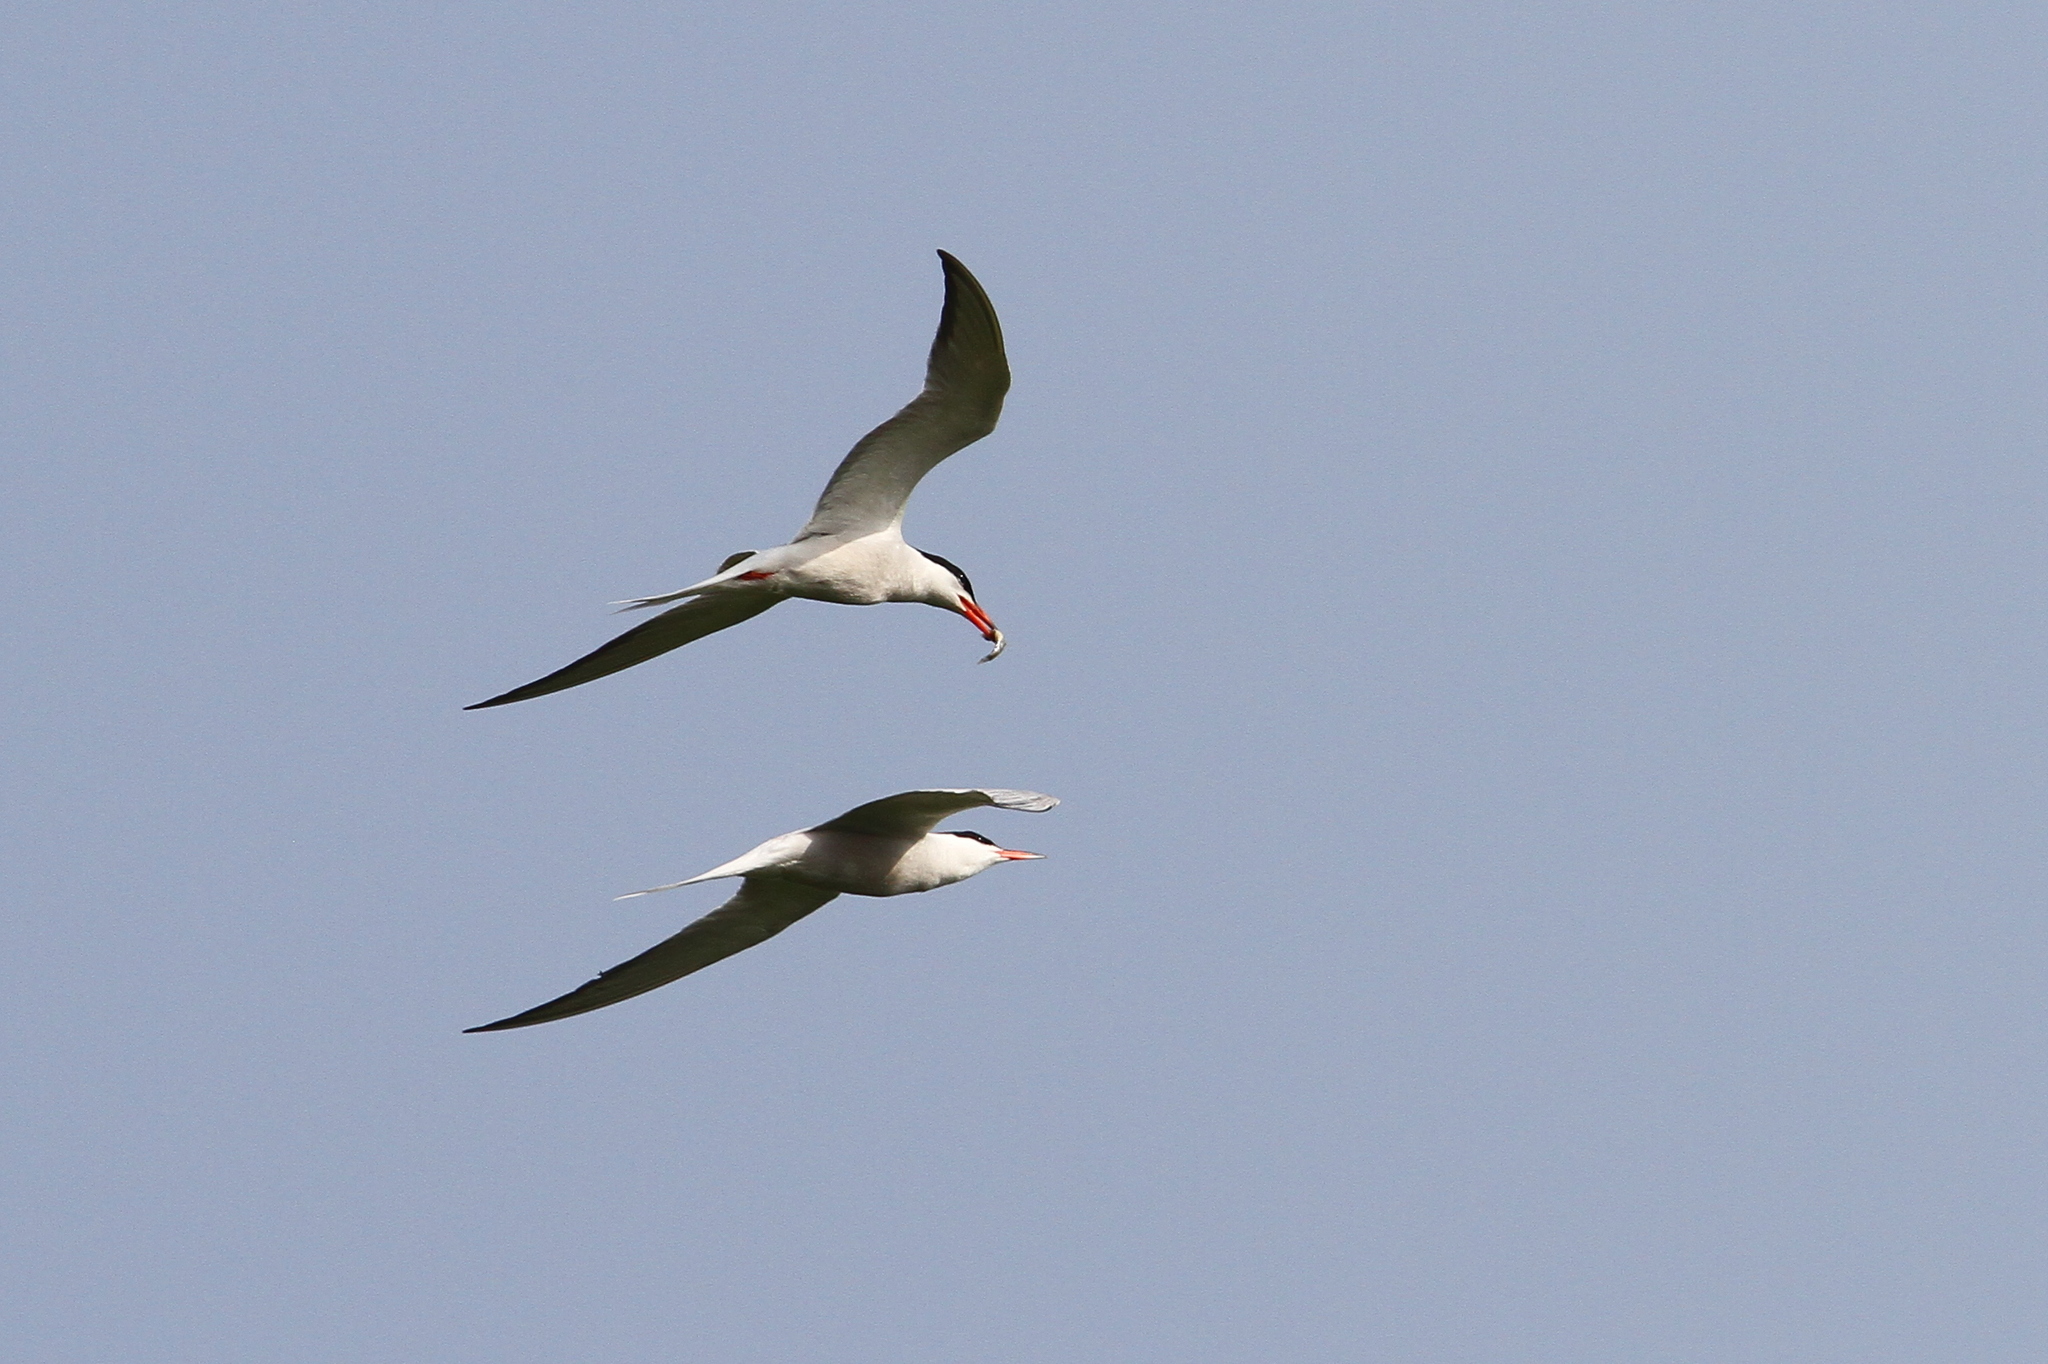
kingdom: Animalia
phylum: Chordata
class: Aves
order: Charadriiformes
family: Laridae
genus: Sterna
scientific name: Sterna hirundo
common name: Common tern
